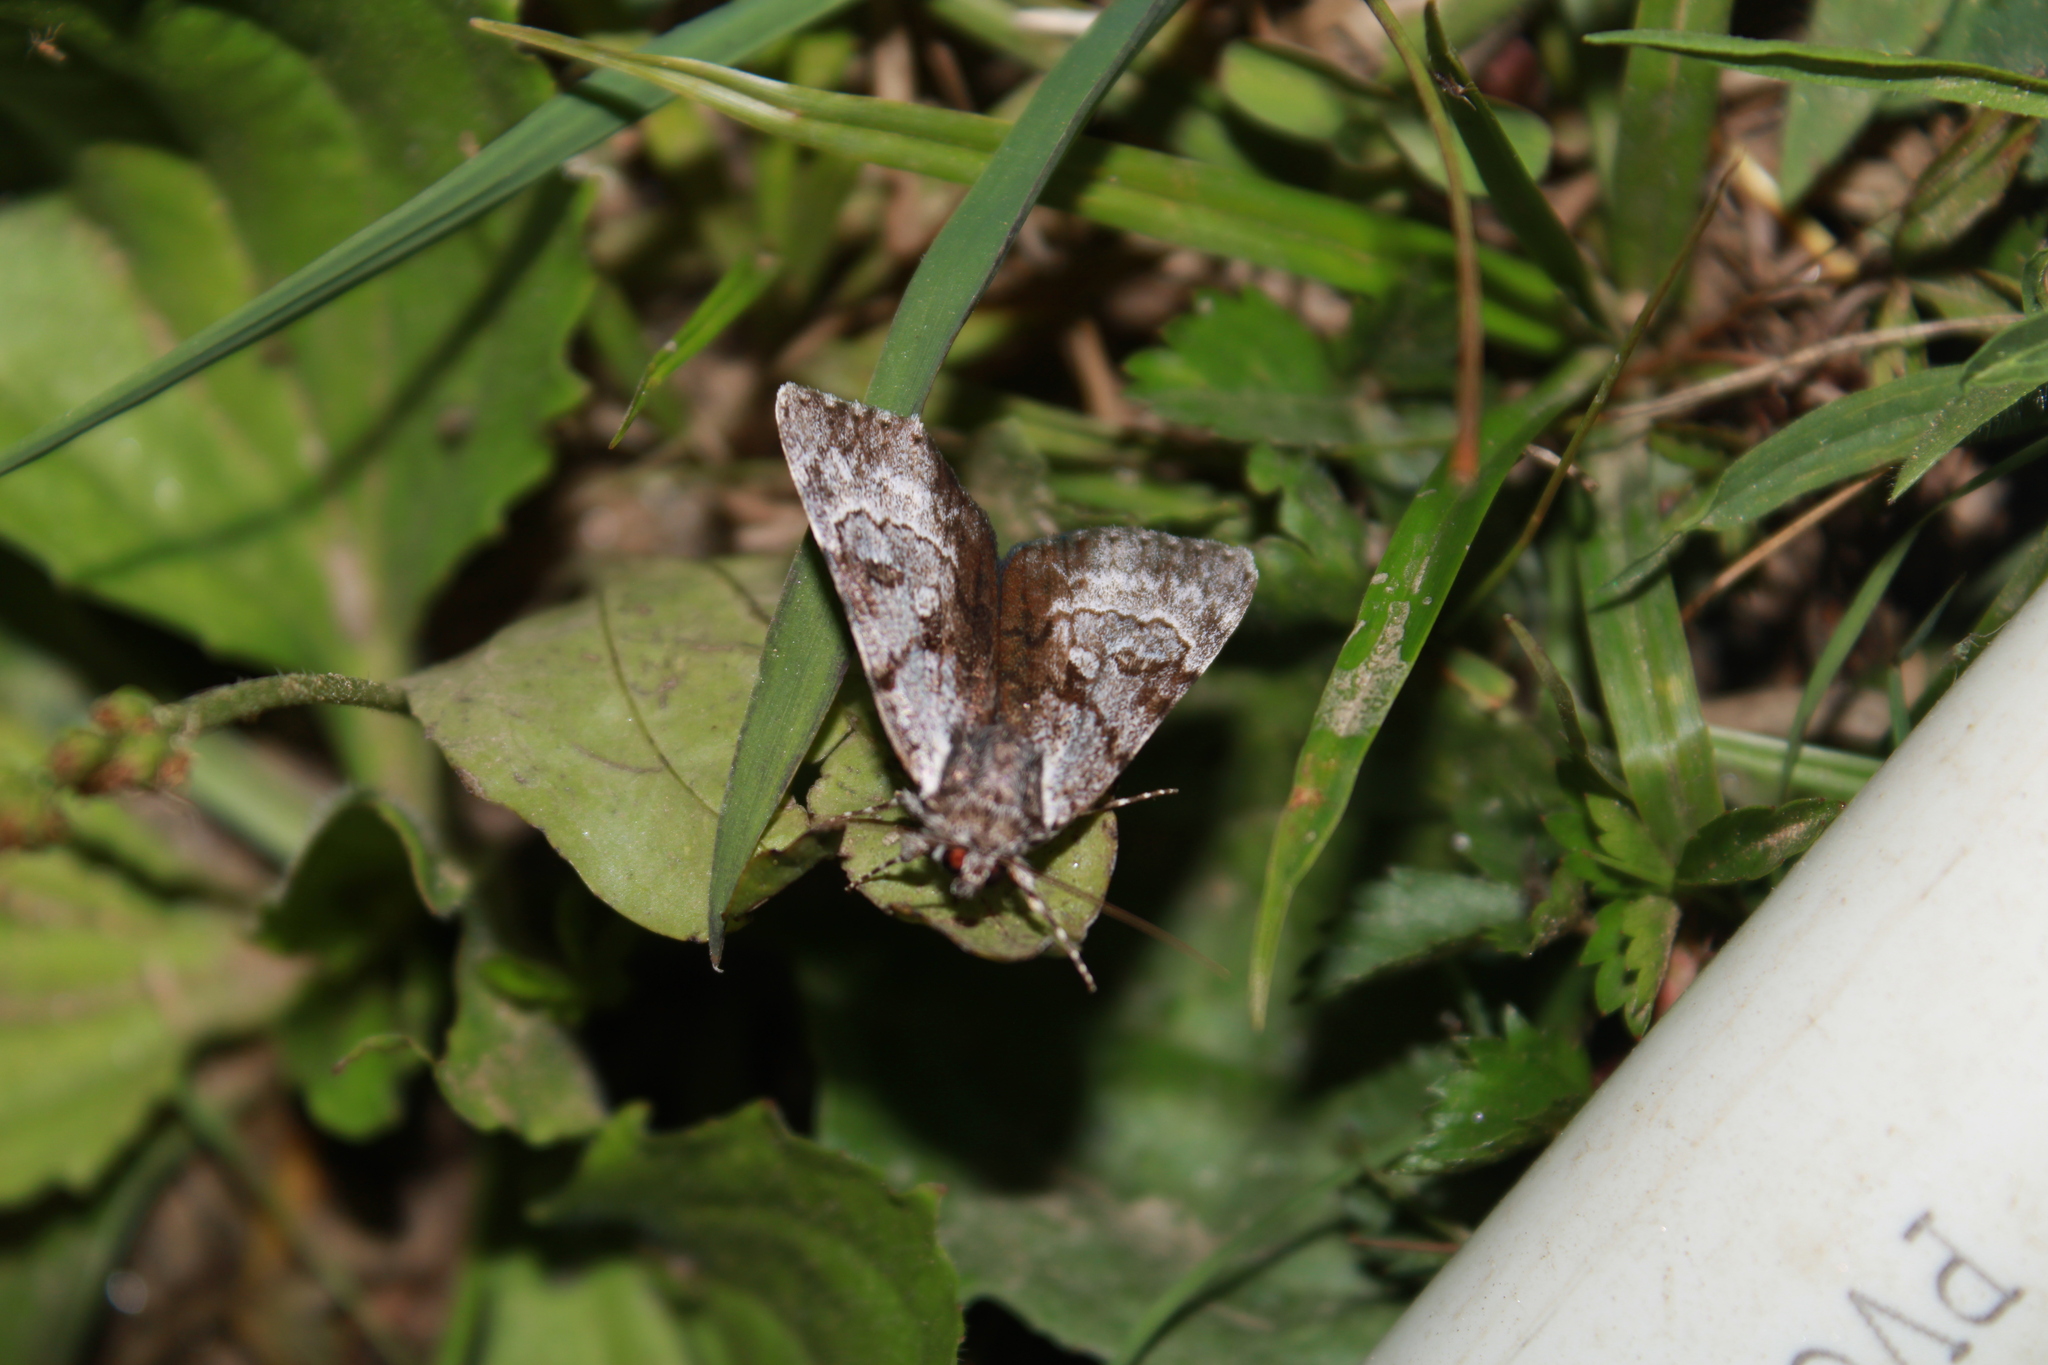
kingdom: Animalia
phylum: Arthropoda
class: Insecta
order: Lepidoptera
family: Erebidae
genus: Catocala
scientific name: Catocala andromedae
